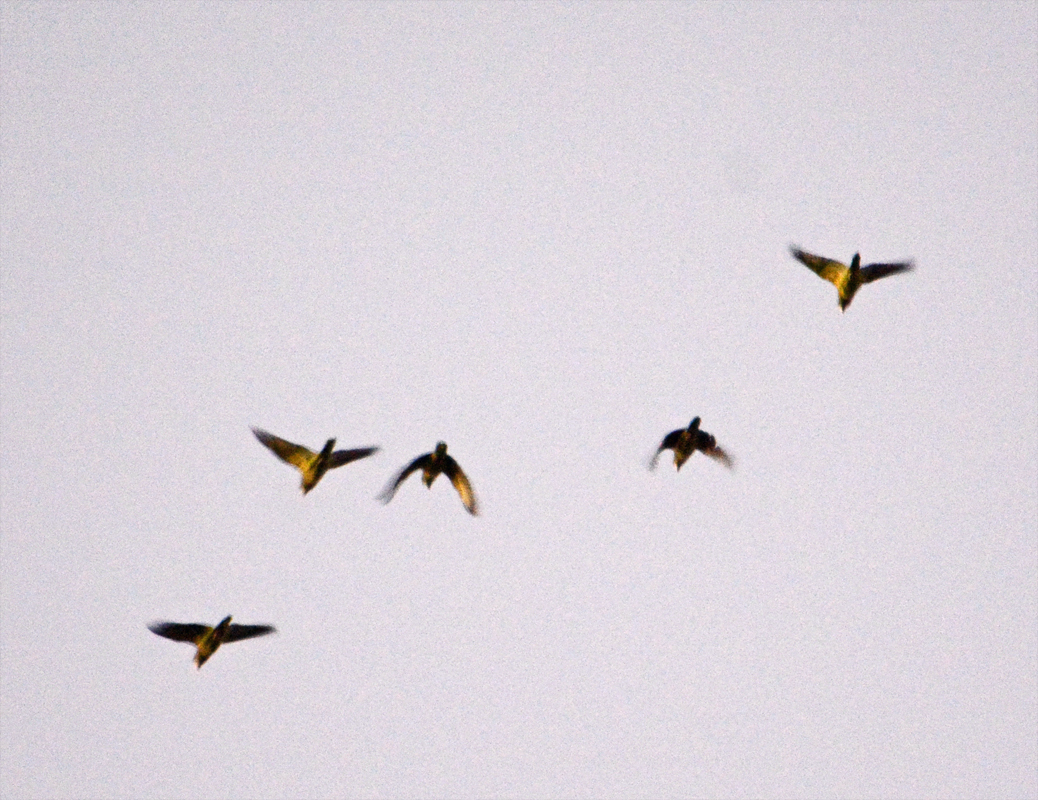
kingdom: Animalia
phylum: Chordata
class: Aves
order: Psittaciformes
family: Psittacidae
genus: Amazona
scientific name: Amazona
